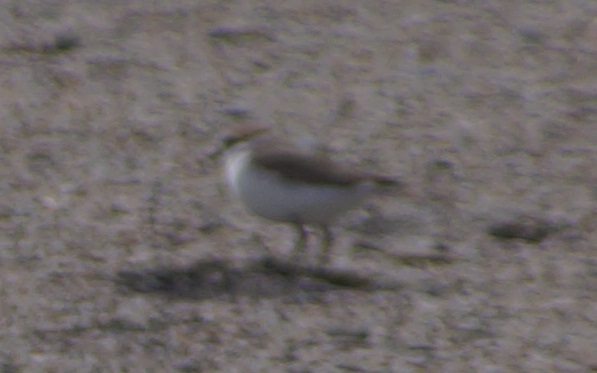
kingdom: Animalia
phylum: Chordata
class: Aves
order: Charadriiformes
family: Charadriidae
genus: Charadrius
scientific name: Charadrius alexandrinus
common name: Kentish plover
